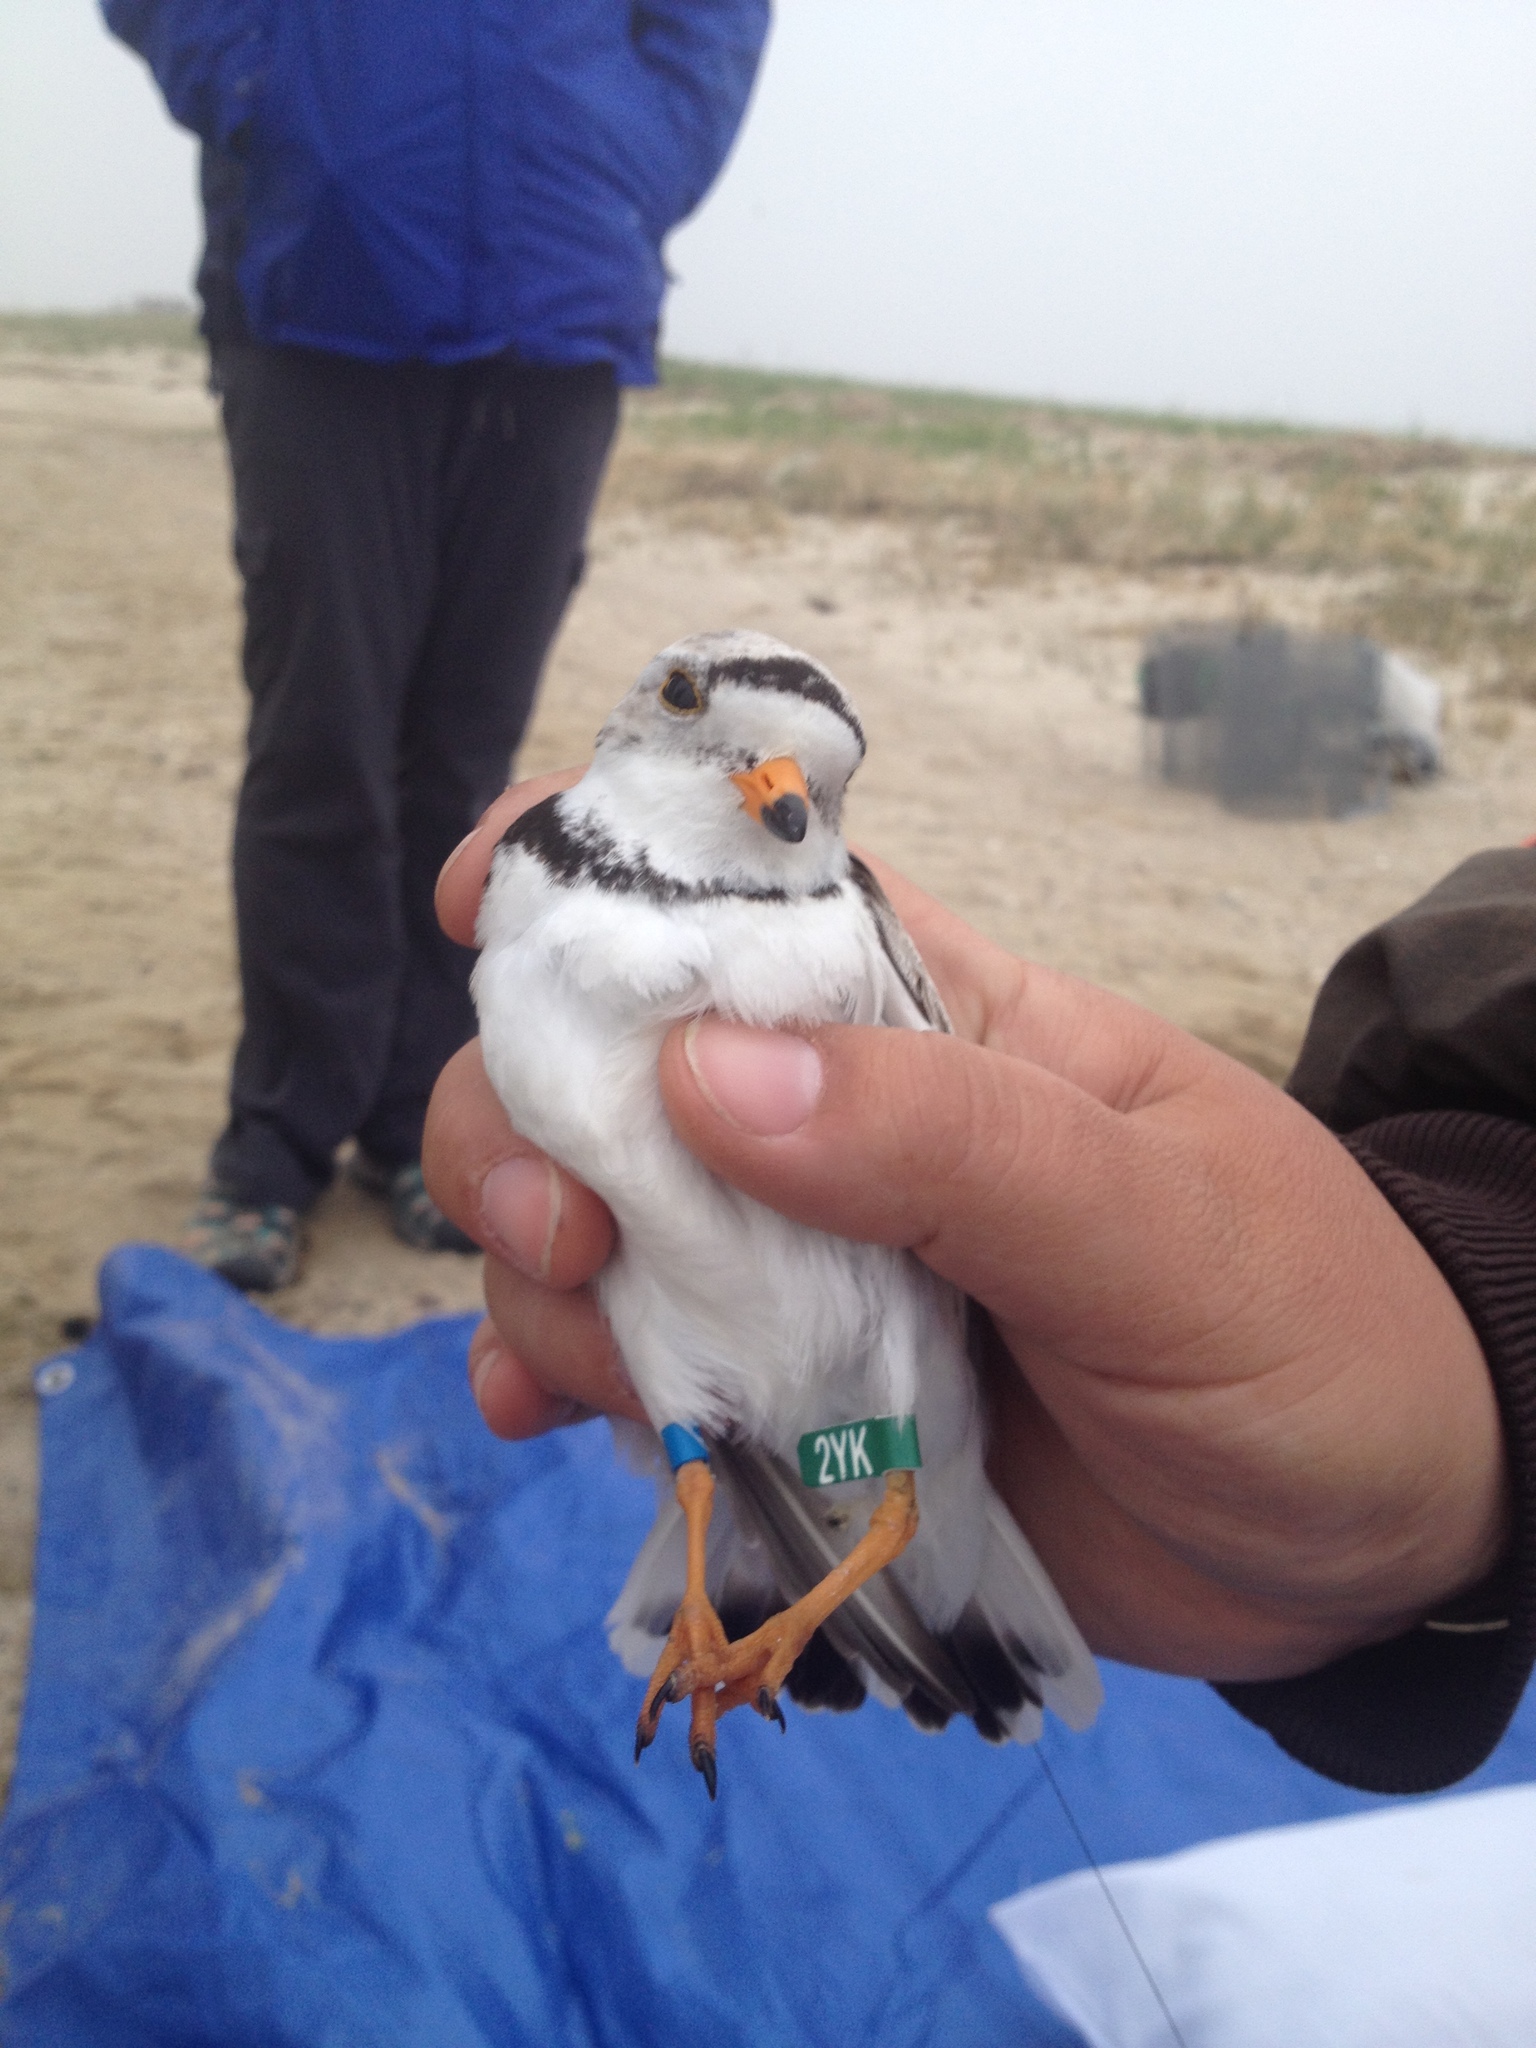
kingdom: Animalia
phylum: Chordata
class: Aves
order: Charadriiformes
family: Charadriidae
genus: Charadrius
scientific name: Charadrius melodus
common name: Piping plover
